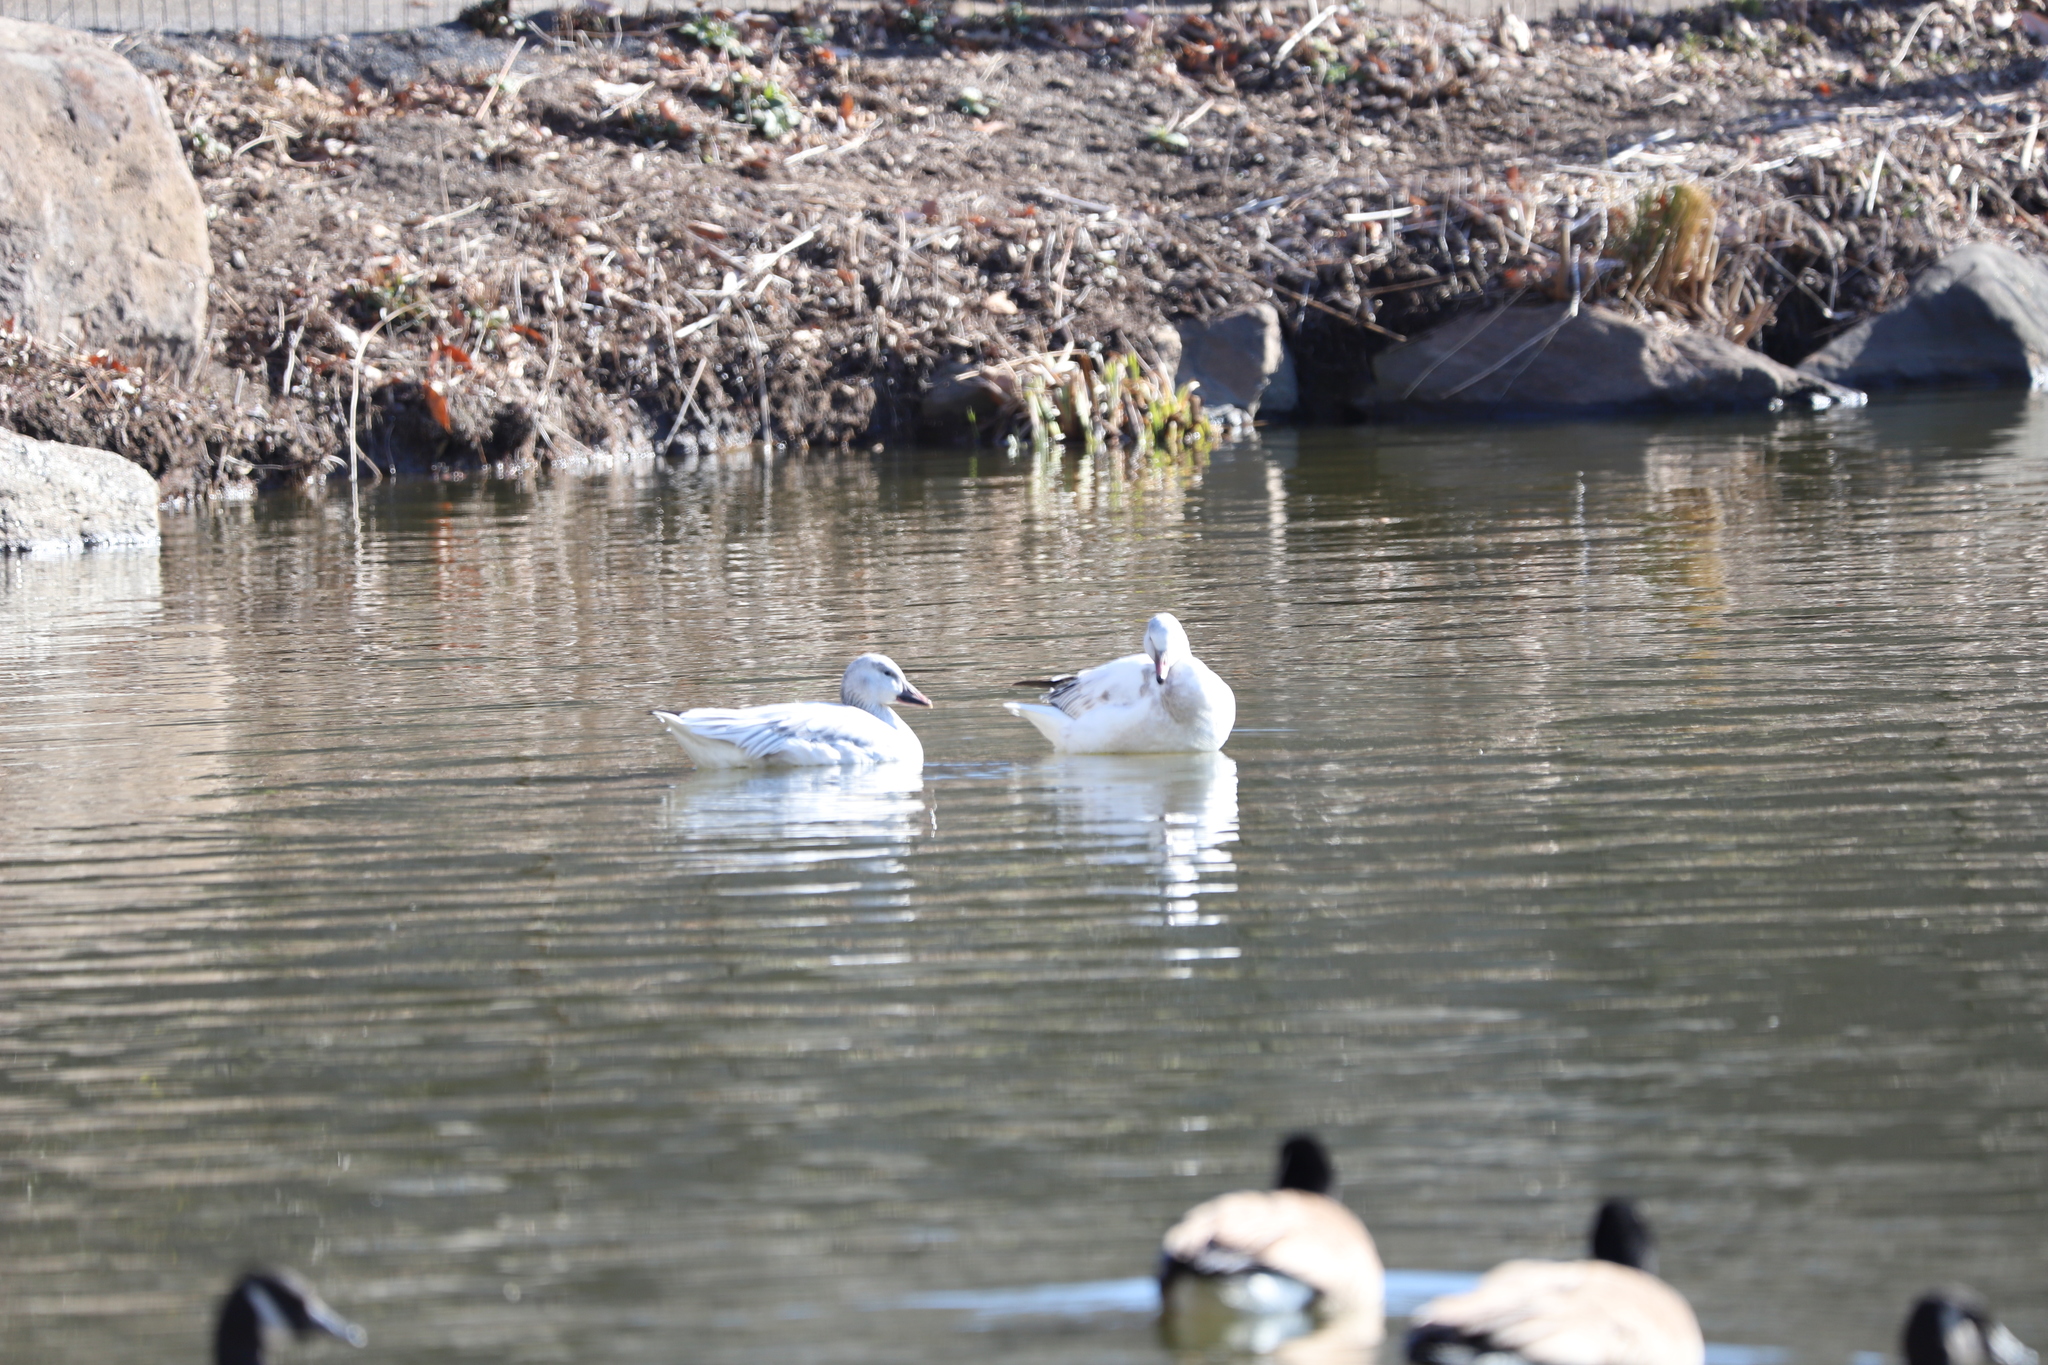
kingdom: Animalia
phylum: Chordata
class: Aves
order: Anseriformes
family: Anatidae
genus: Anser
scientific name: Anser caerulescens
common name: Snow goose
